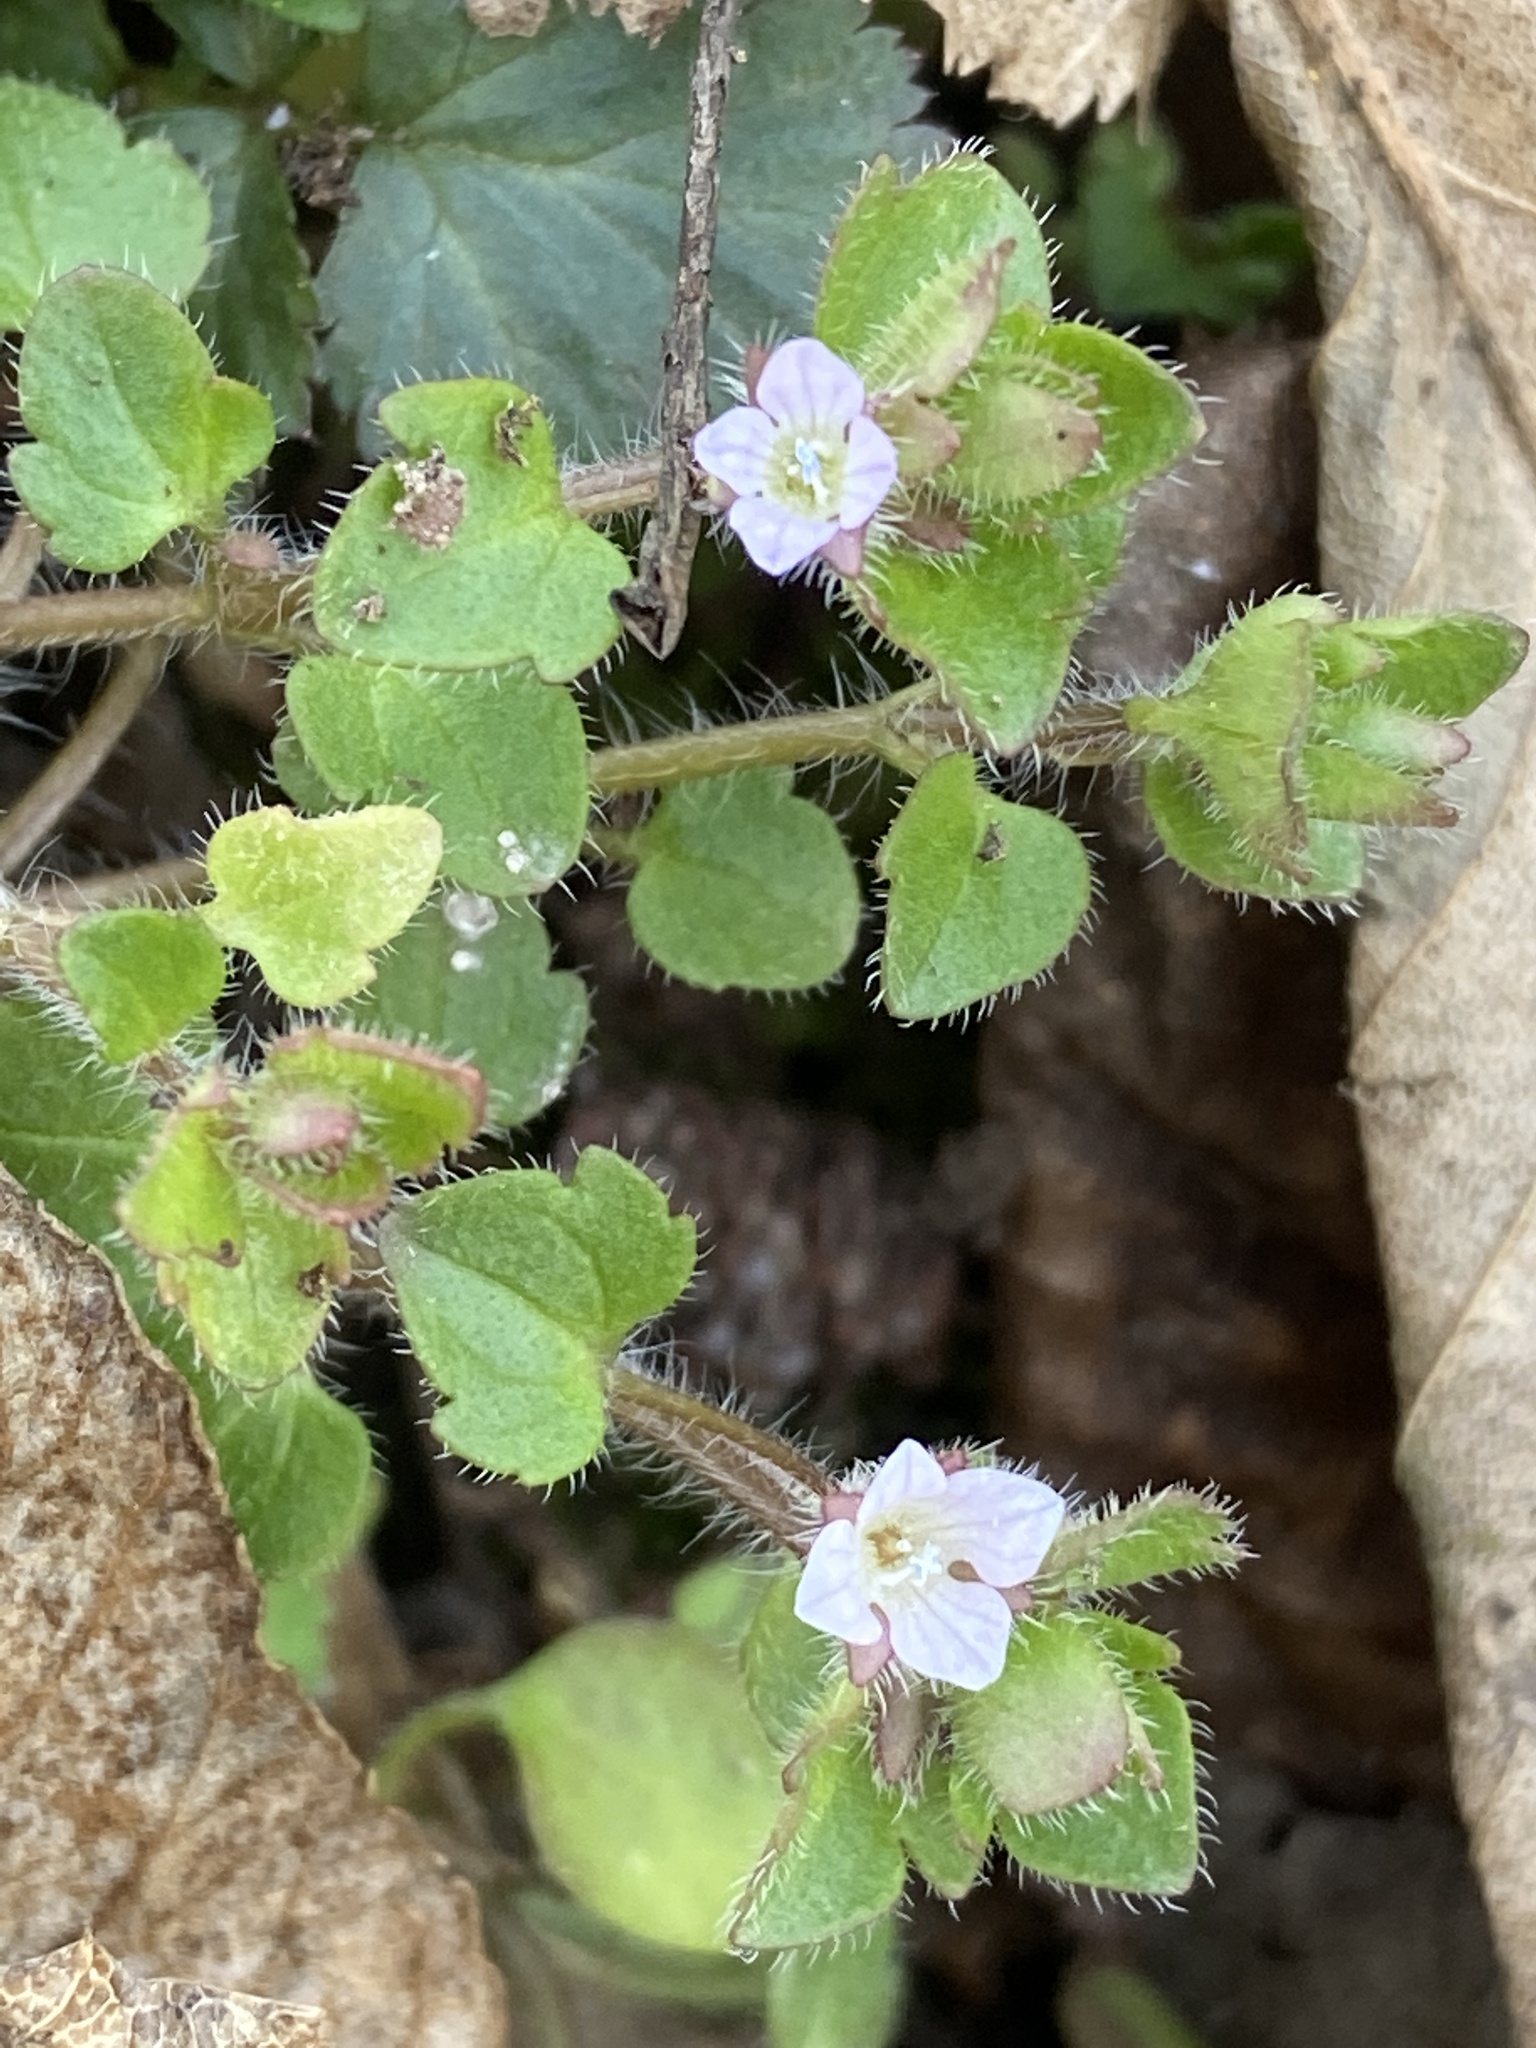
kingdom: Plantae
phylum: Tracheophyta
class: Magnoliopsida
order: Lamiales
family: Plantaginaceae
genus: Veronica
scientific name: Veronica sublobata
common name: False ivy-leaved speedwell
